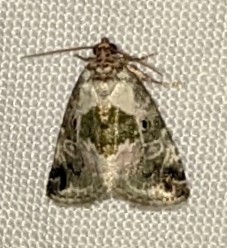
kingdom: Animalia
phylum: Arthropoda
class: Insecta
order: Lepidoptera
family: Noctuidae
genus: Maliattha
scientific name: Maliattha synochitis
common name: Black-dotted glyph
